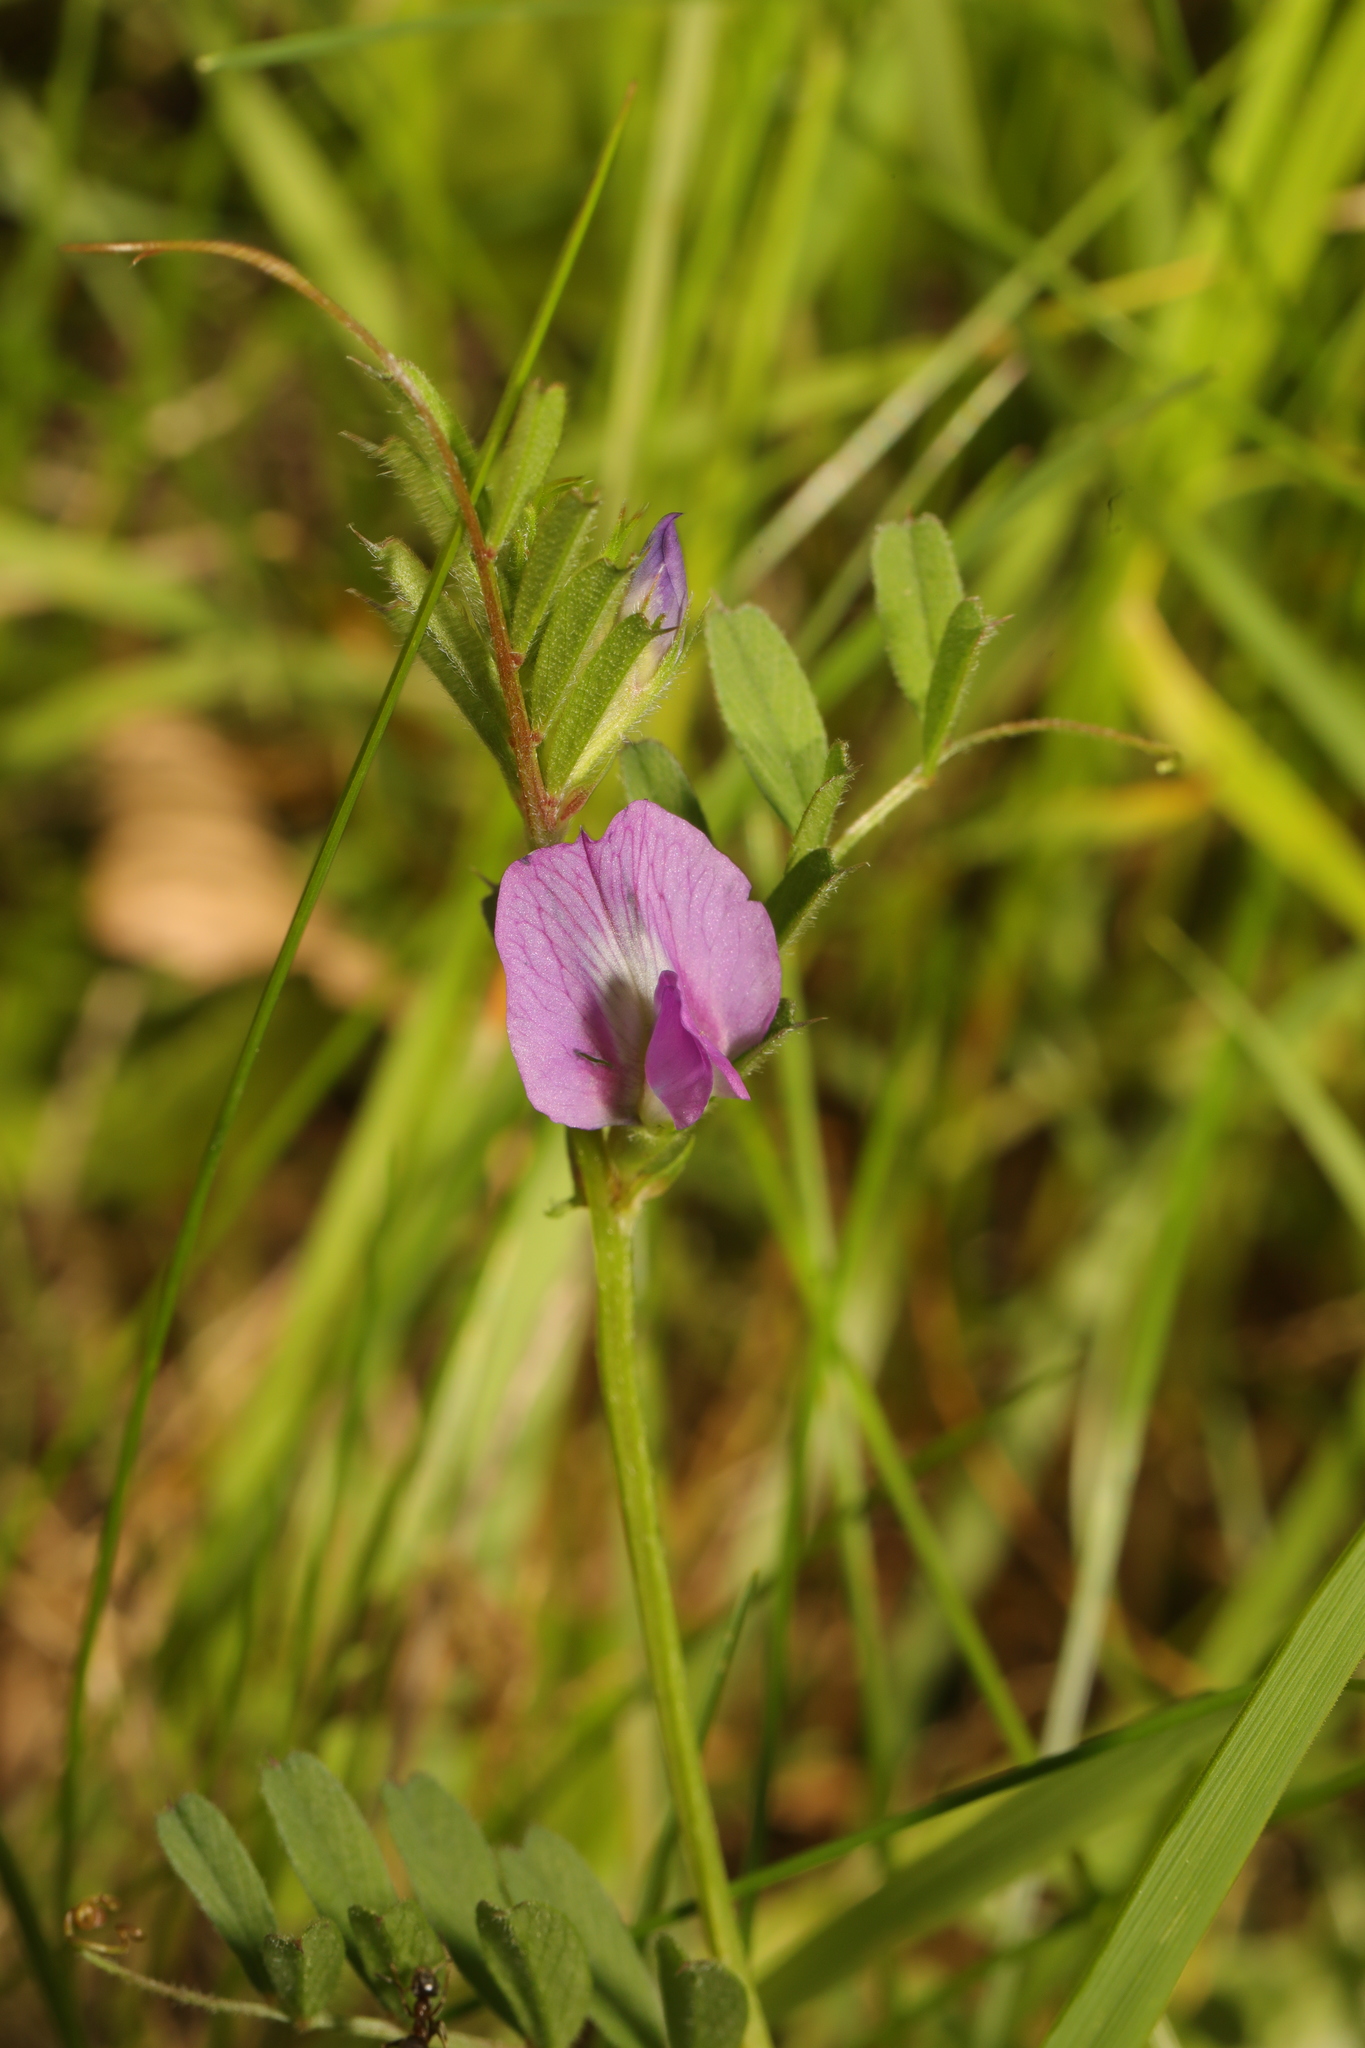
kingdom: Plantae
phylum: Tracheophyta
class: Magnoliopsida
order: Fabales
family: Fabaceae
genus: Vicia
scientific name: Vicia sativa
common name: Garden vetch
